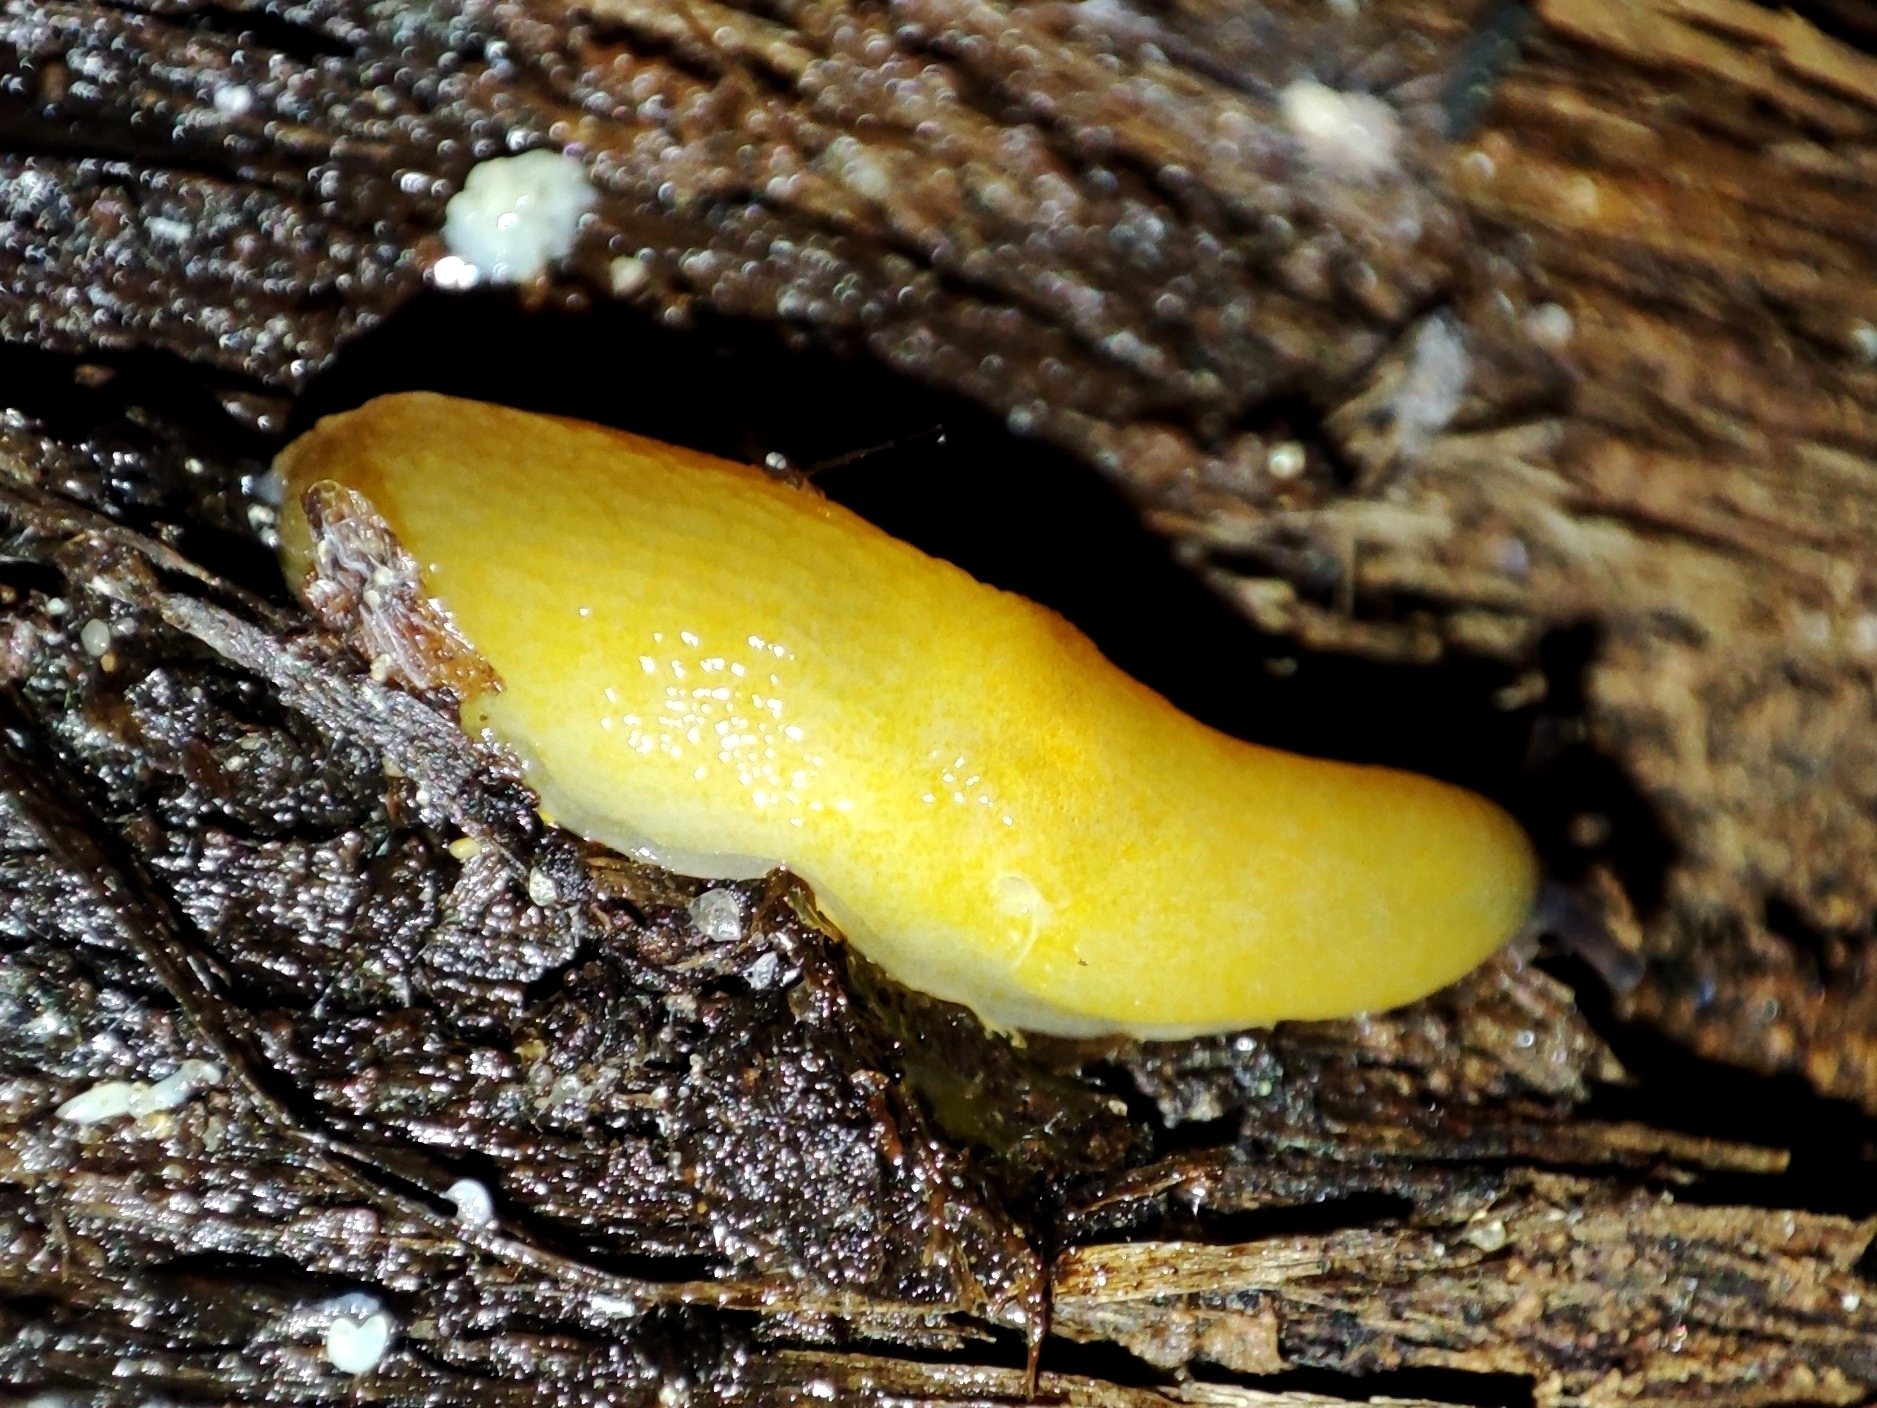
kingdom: Animalia
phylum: Mollusca
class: Gastropoda
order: Stylommatophora
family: Limacidae
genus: Malacolimax
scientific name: Malacolimax tenellus
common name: Lemon slug
